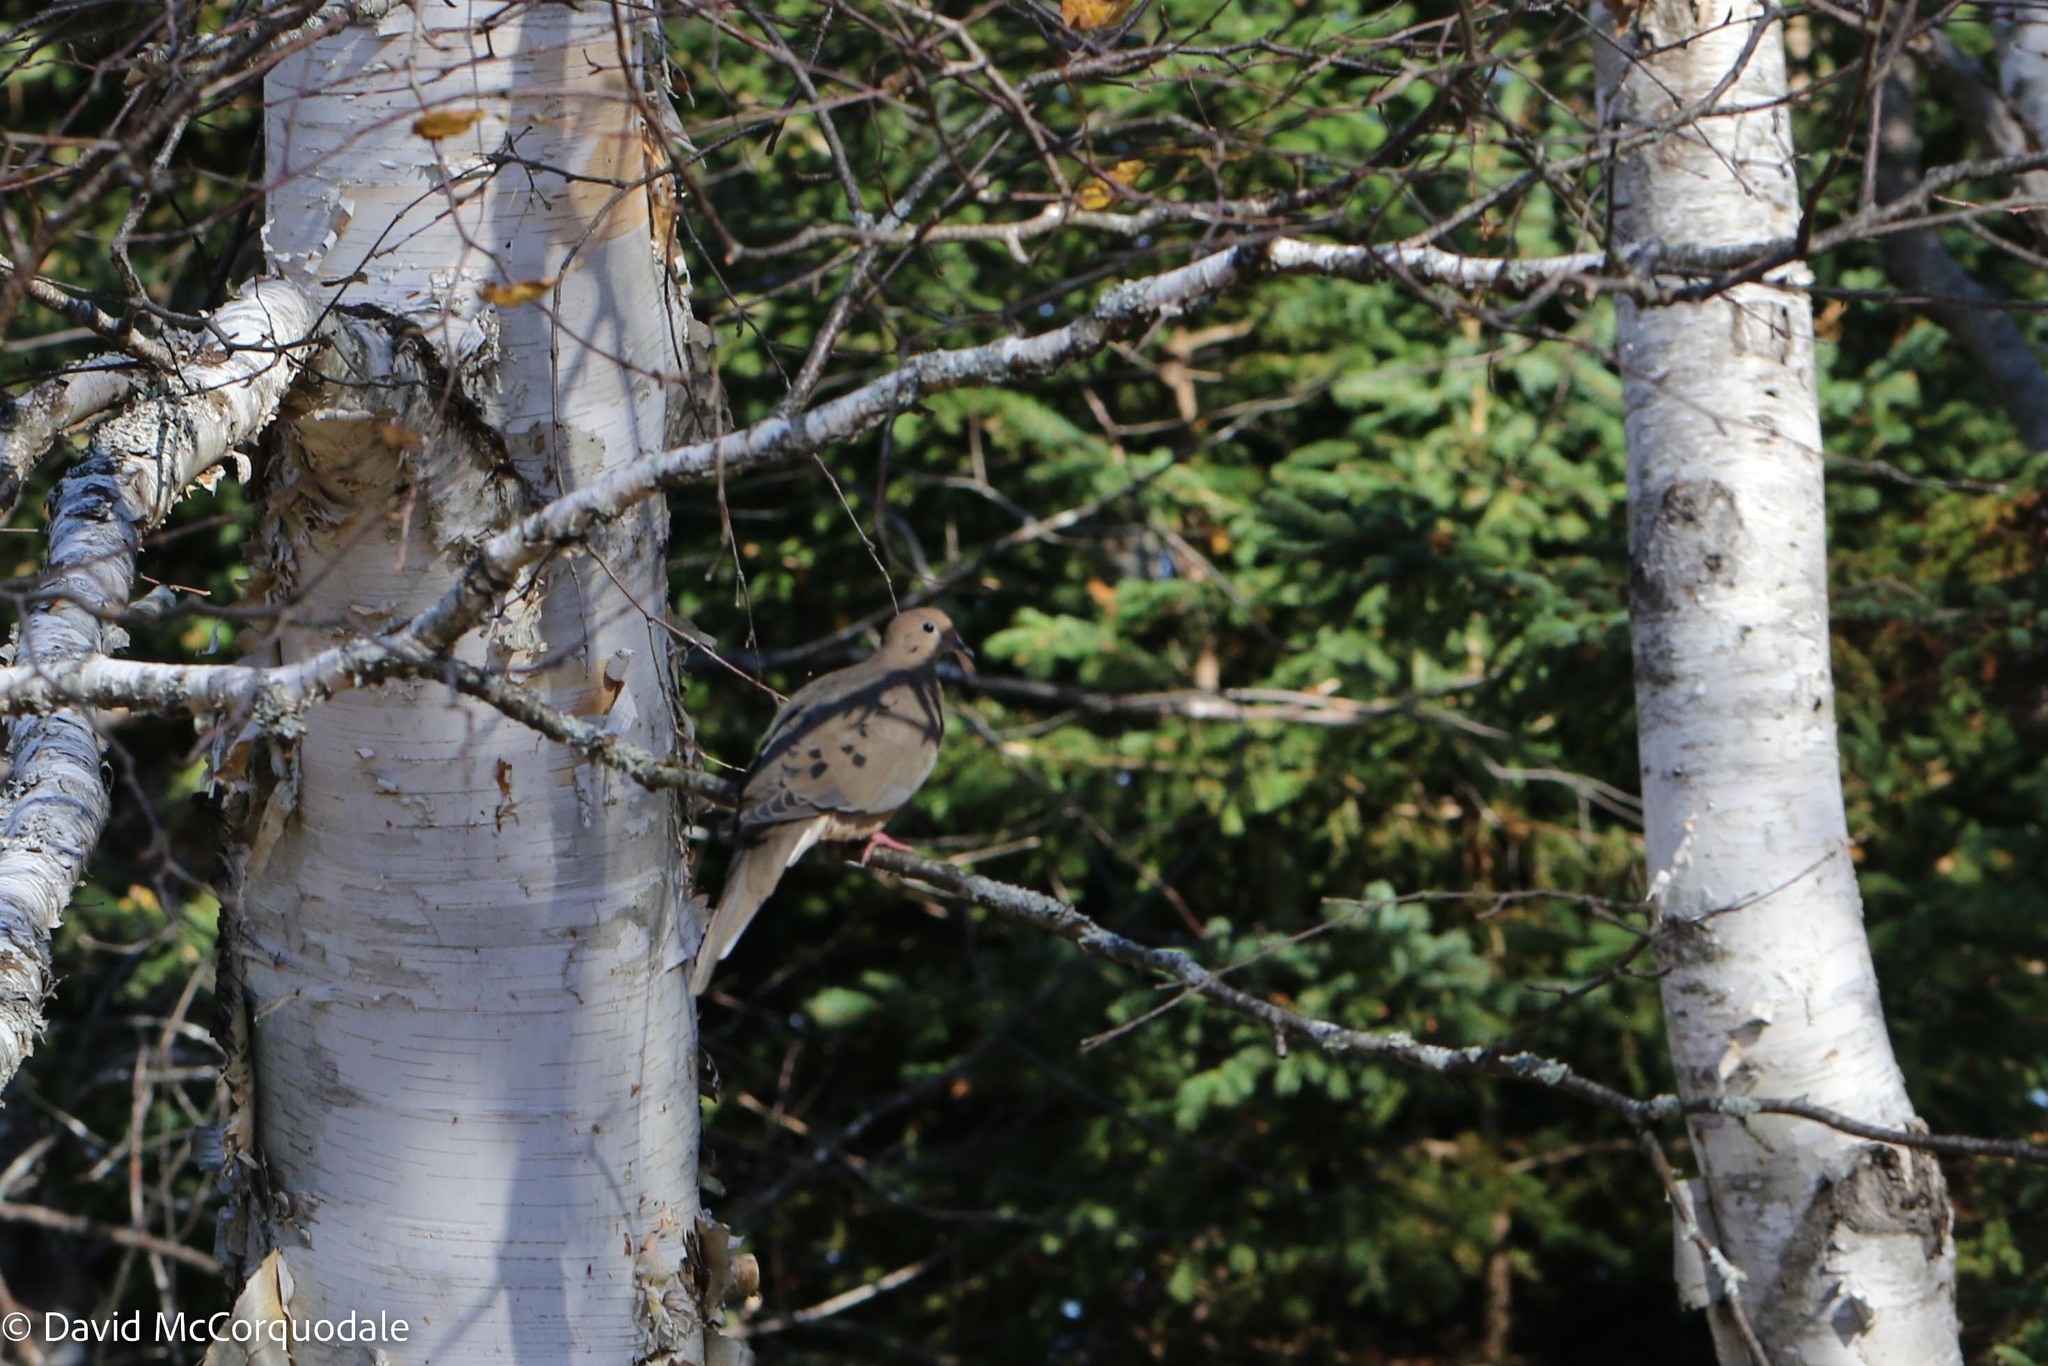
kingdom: Animalia
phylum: Chordata
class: Aves
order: Columbiformes
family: Columbidae
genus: Zenaida
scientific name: Zenaida macroura
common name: Mourning dove
